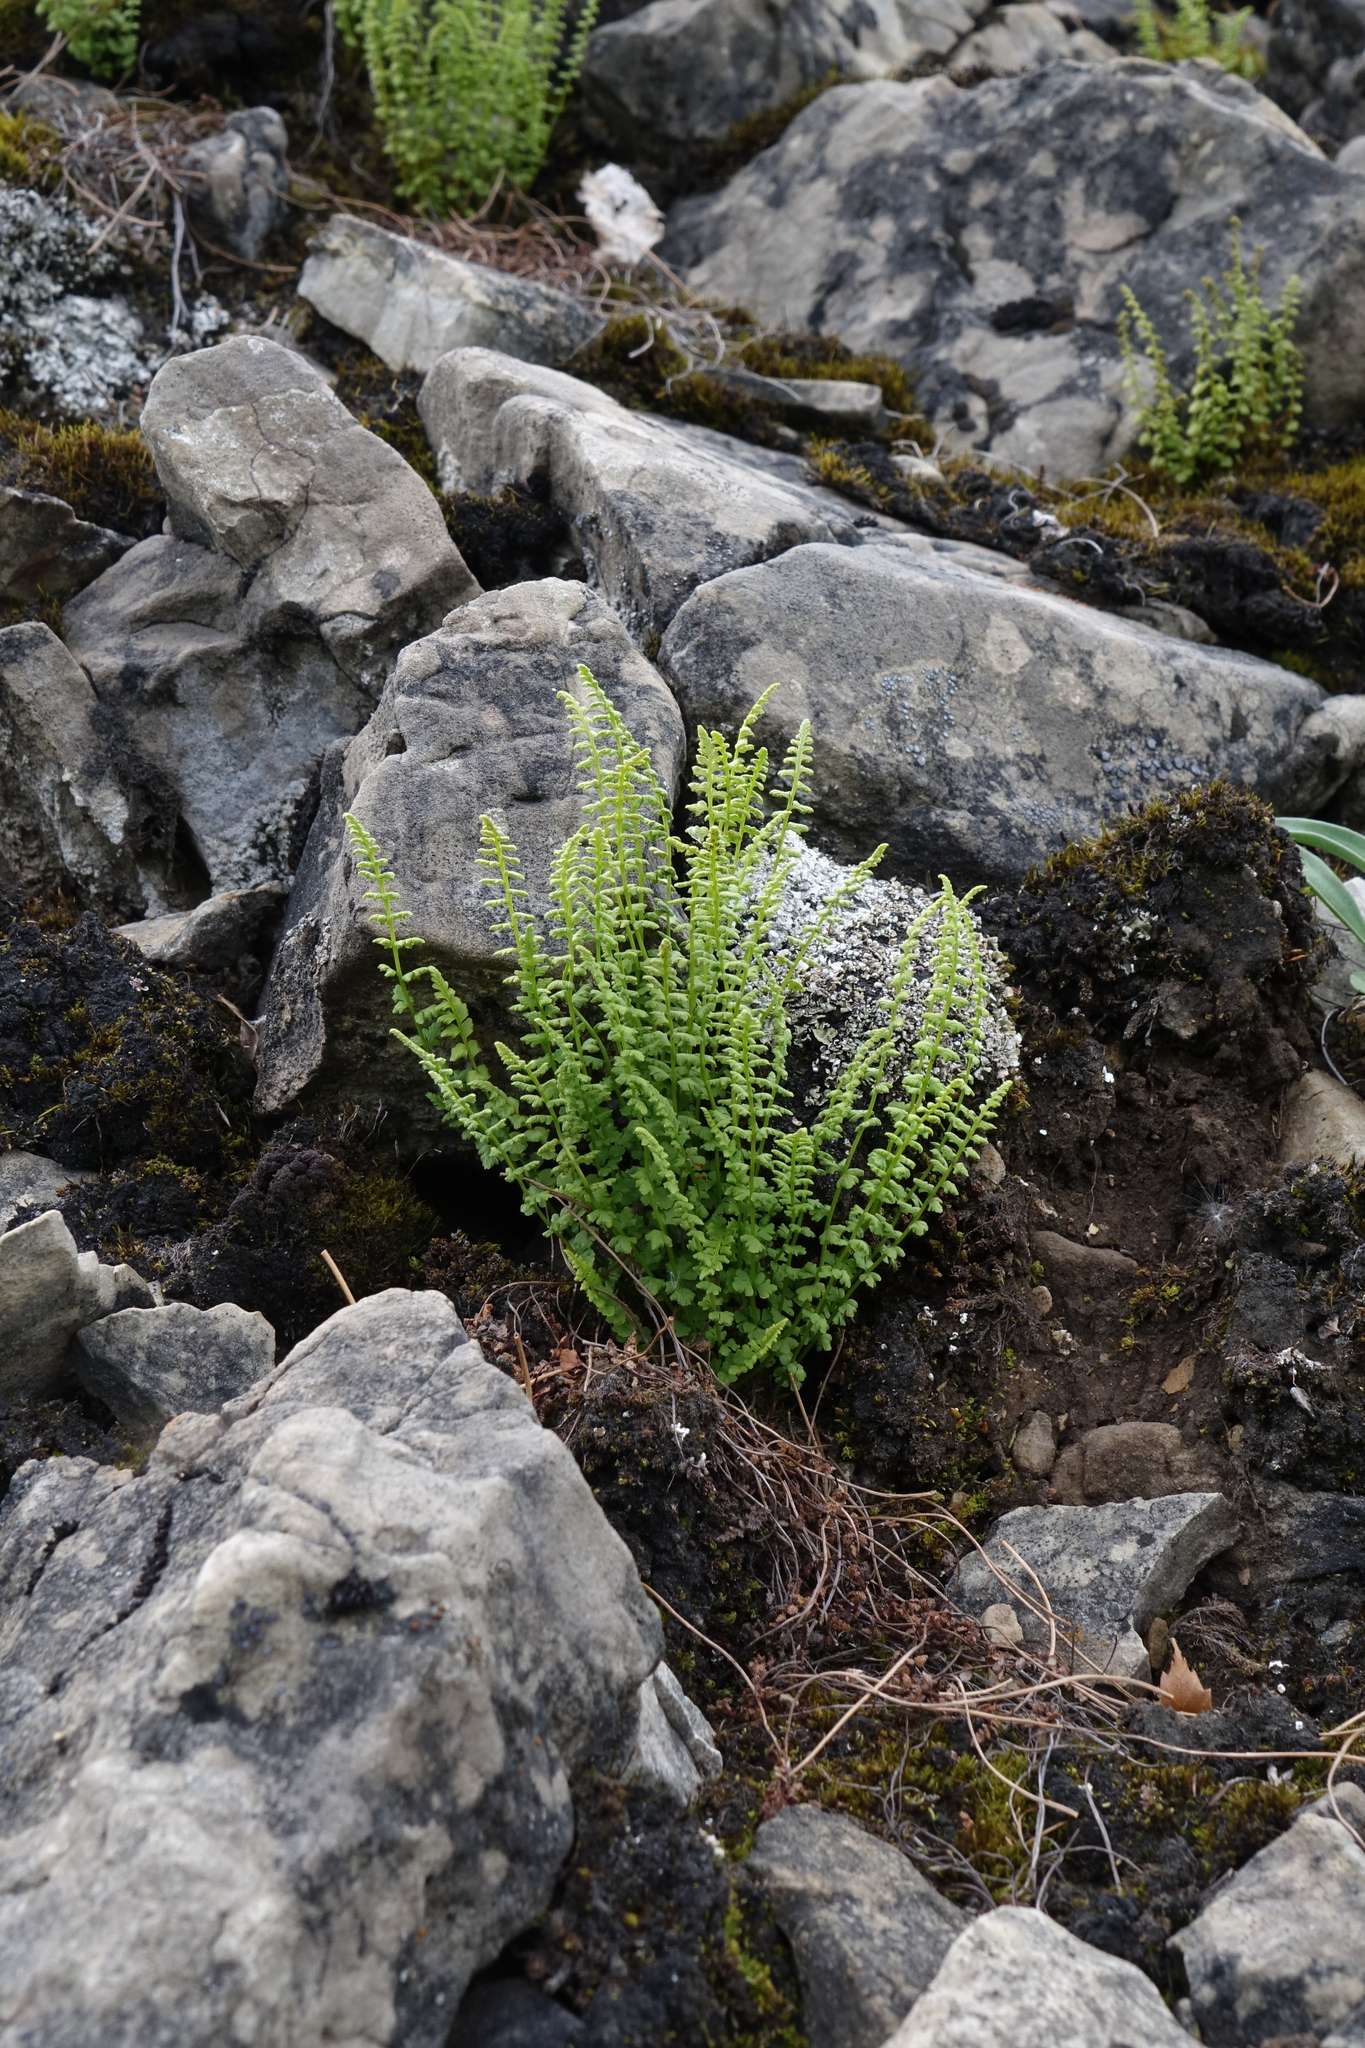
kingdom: Plantae
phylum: Tracheophyta
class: Polypodiopsida
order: Polypodiales
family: Woodsiaceae
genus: Woodsia
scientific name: Woodsia glabella
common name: Smooth woodsia
